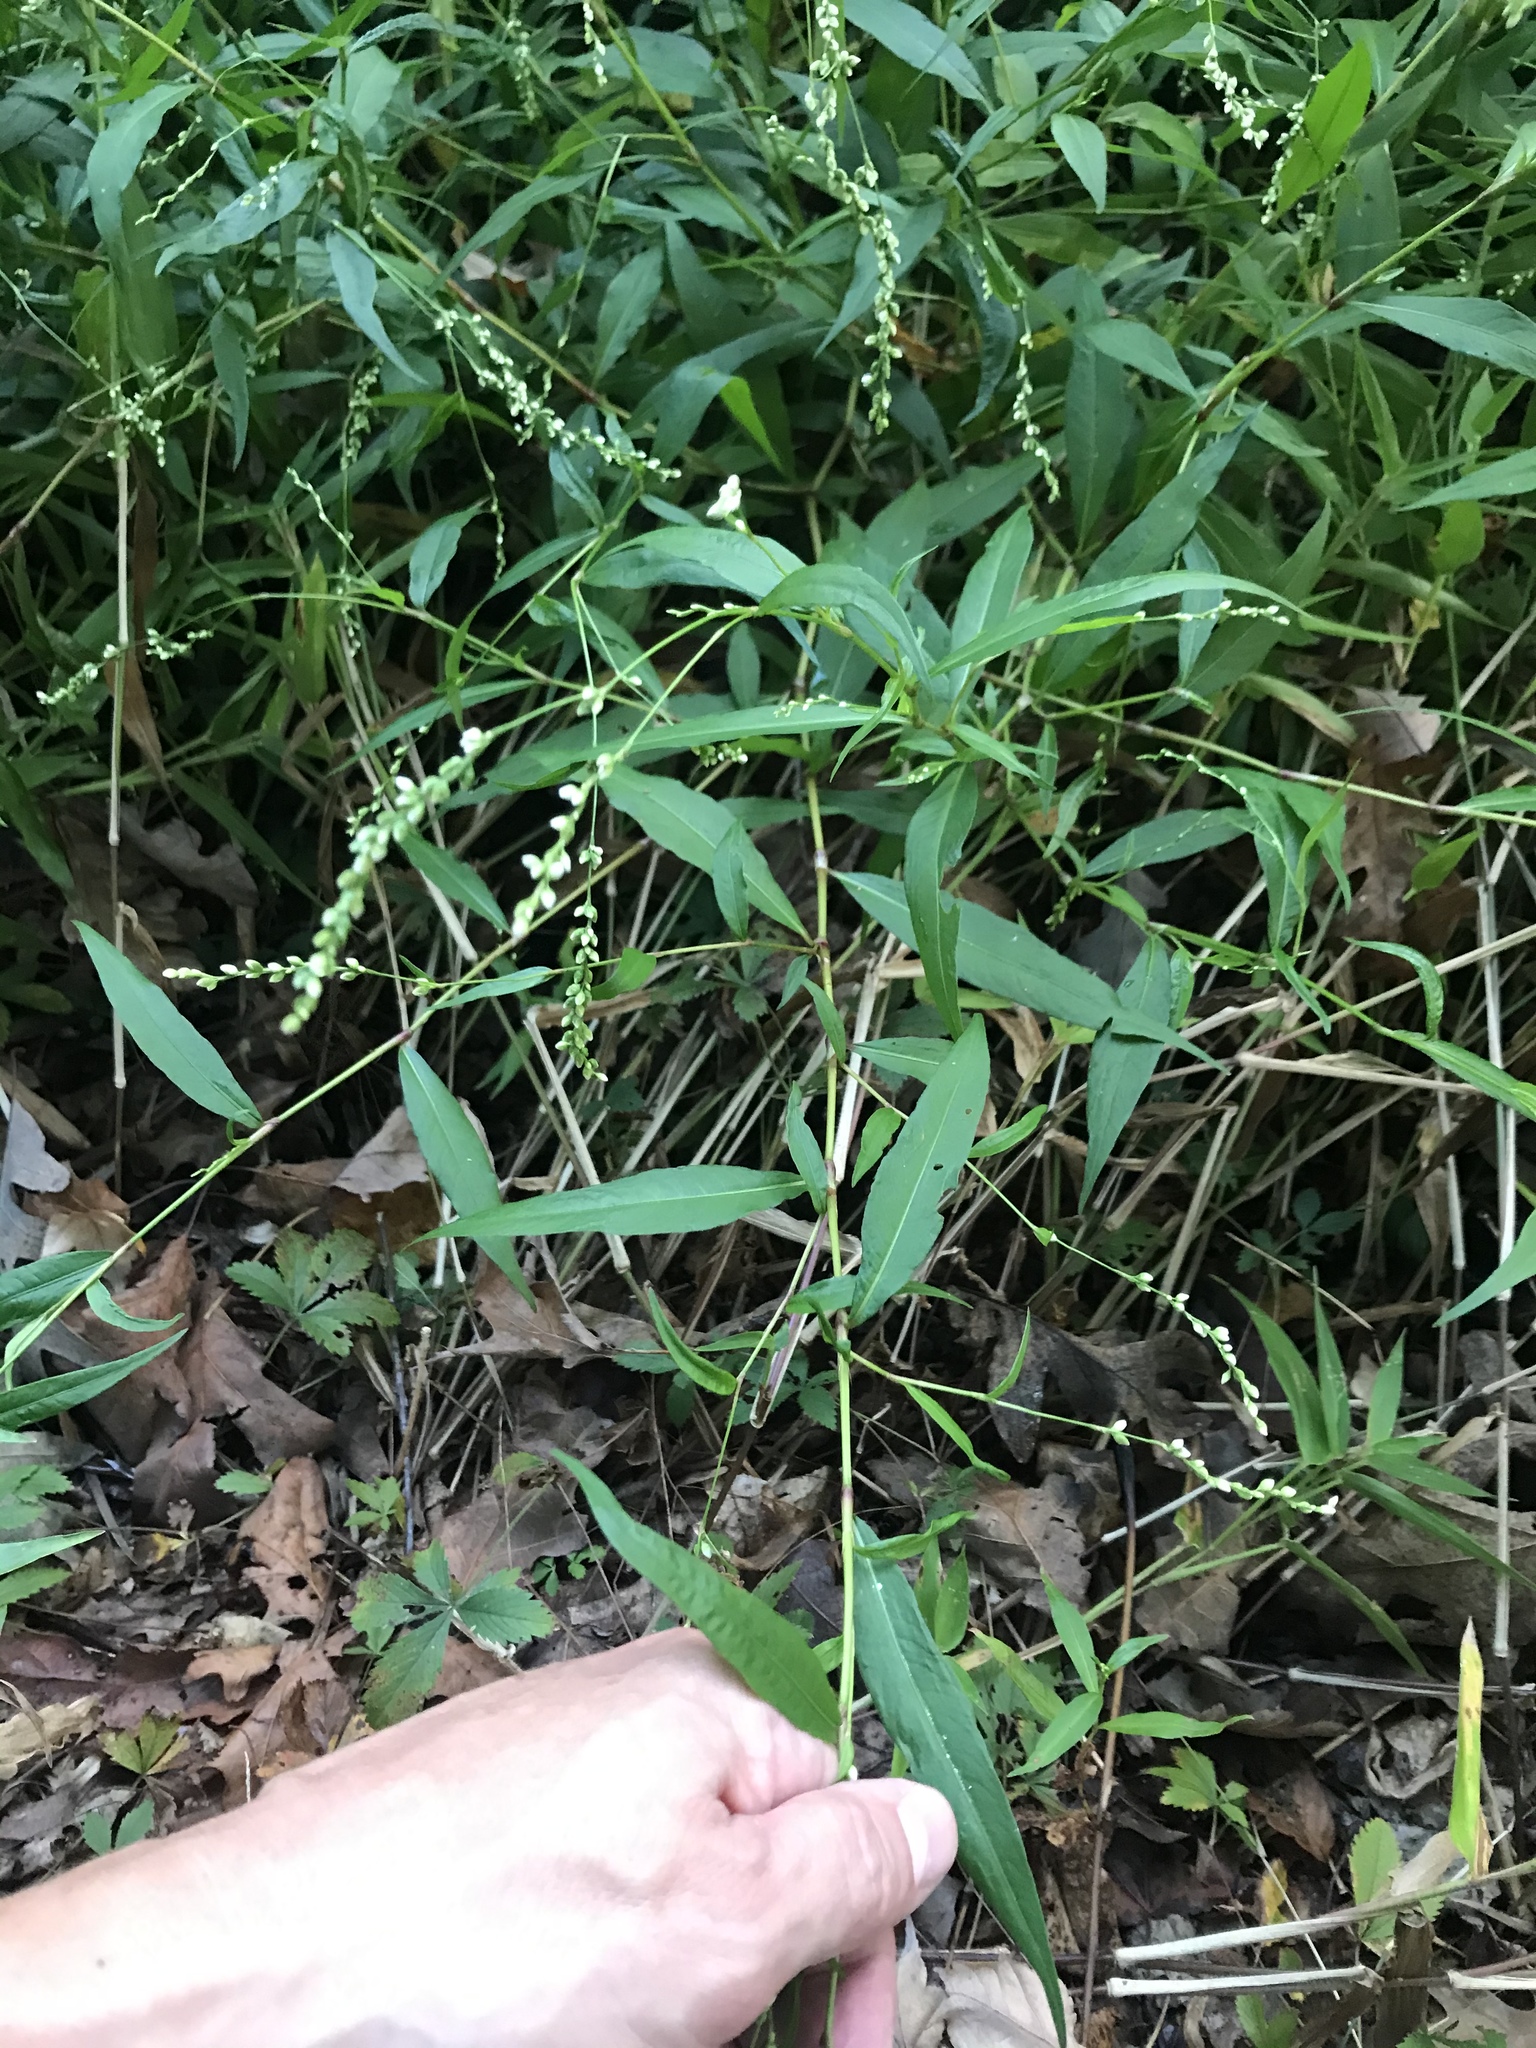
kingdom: Plantae
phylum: Tracheophyta
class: Magnoliopsida
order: Caryophyllales
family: Polygonaceae
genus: Persicaria
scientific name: Persicaria punctata
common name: Dotted smartweed
